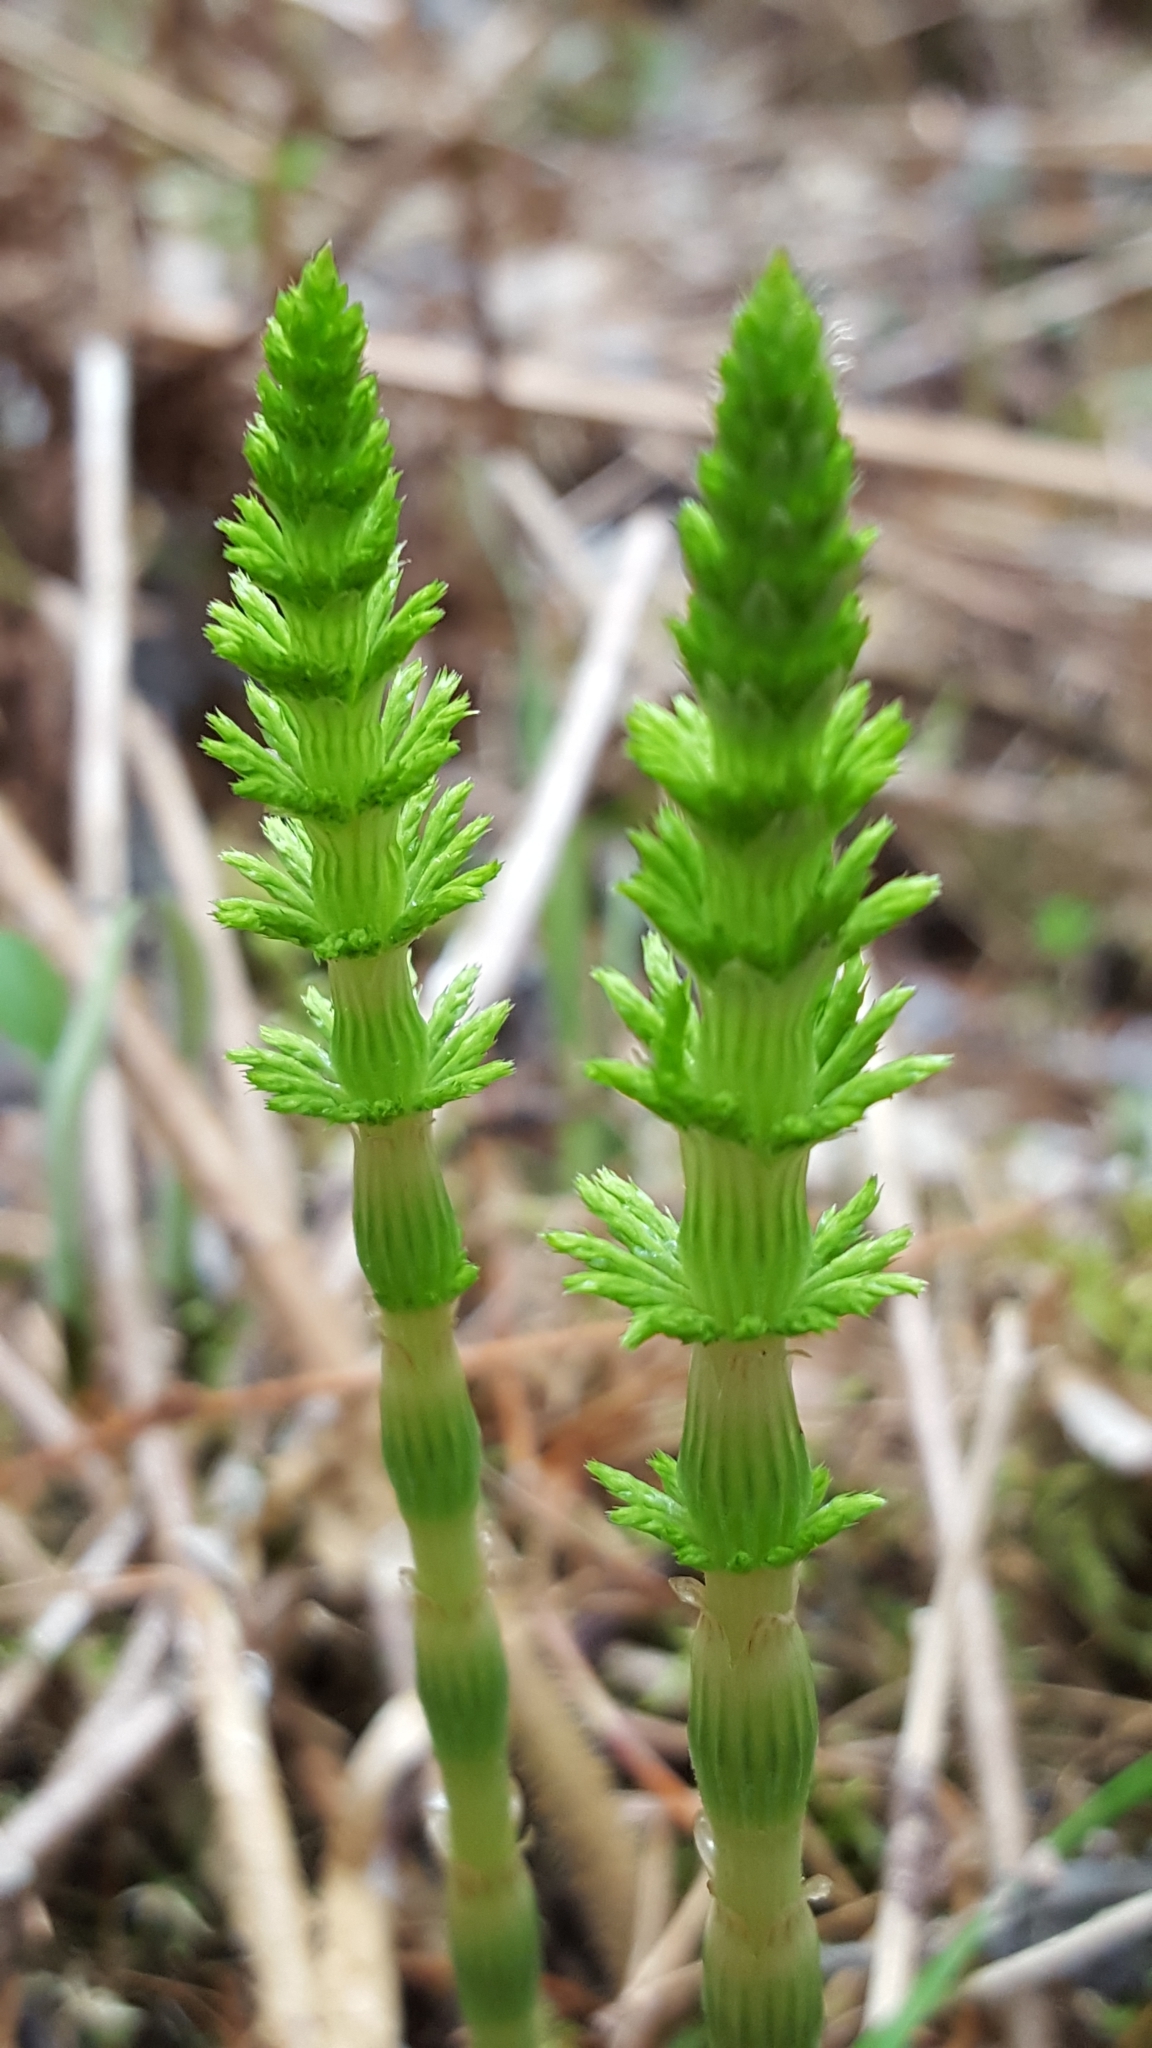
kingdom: Plantae
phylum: Tracheophyta
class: Polypodiopsida
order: Equisetales
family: Equisetaceae
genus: Equisetum
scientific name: Equisetum sylvaticum
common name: Wood horsetail
